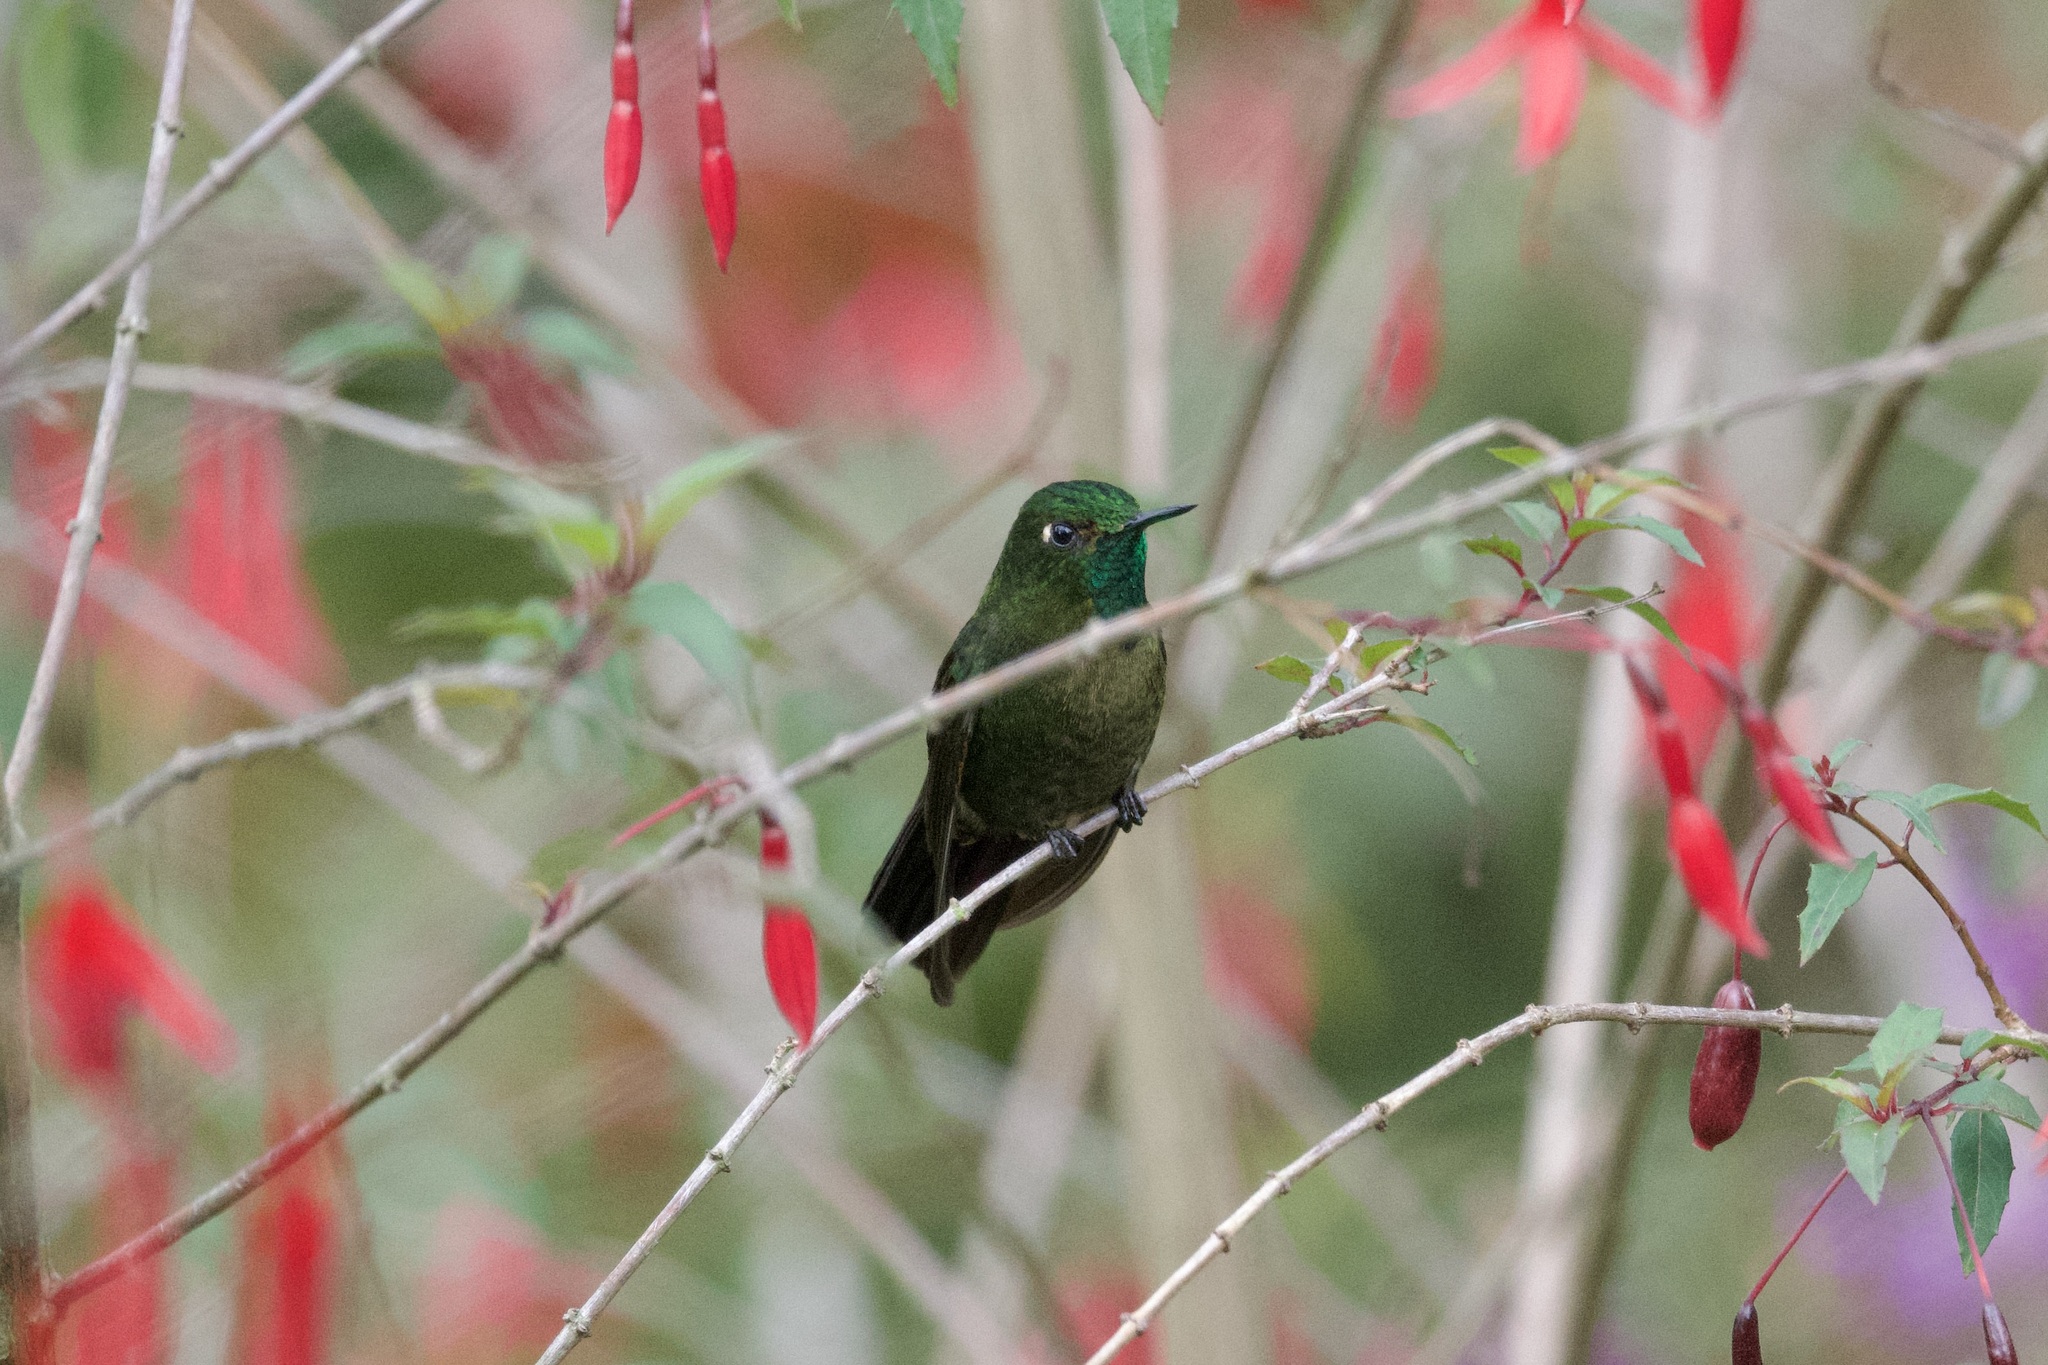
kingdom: Animalia
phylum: Chordata
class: Aves
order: Apodiformes
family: Trochilidae
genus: Metallura
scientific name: Metallura tyrianthina
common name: Tyrian metaltail
